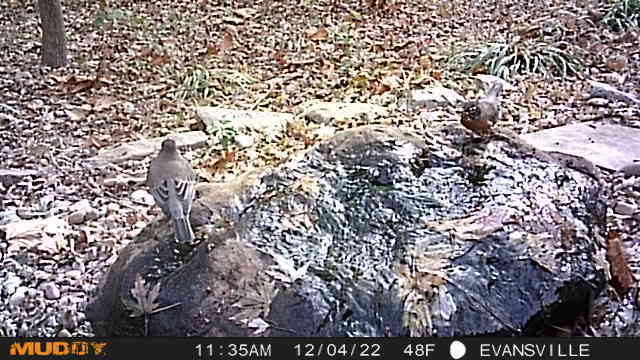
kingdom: Animalia
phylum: Chordata
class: Aves
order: Passeriformes
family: Turdidae
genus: Turdus
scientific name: Turdus migratorius
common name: American robin
